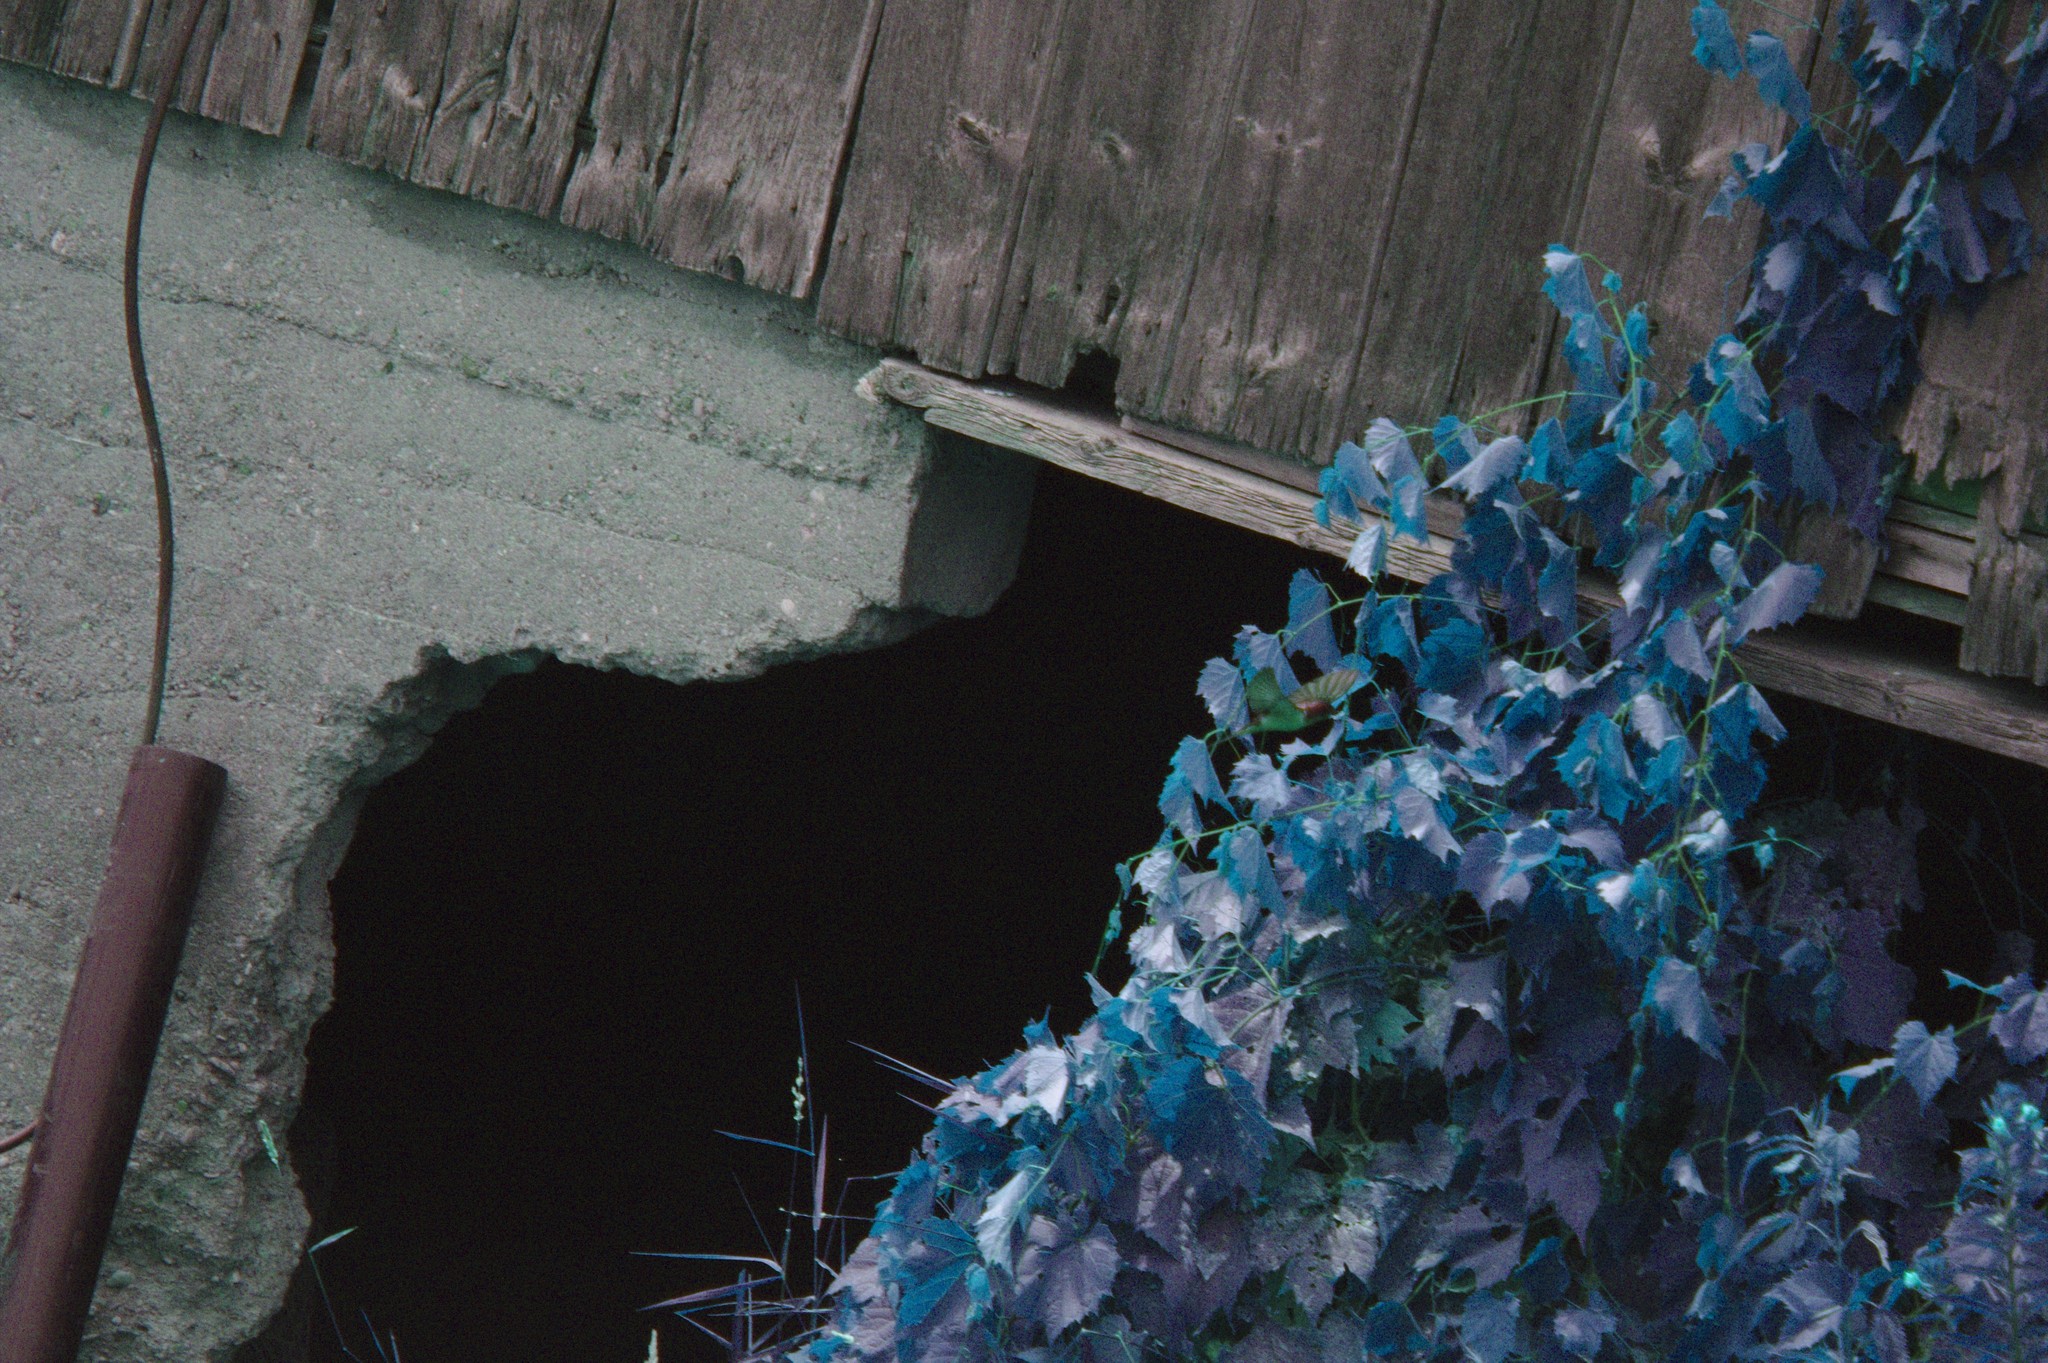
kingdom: Animalia
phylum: Chordata
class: Aves
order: Passeriformes
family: Hirundinidae
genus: Hirundo
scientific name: Hirundo rustica
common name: Barn swallow
